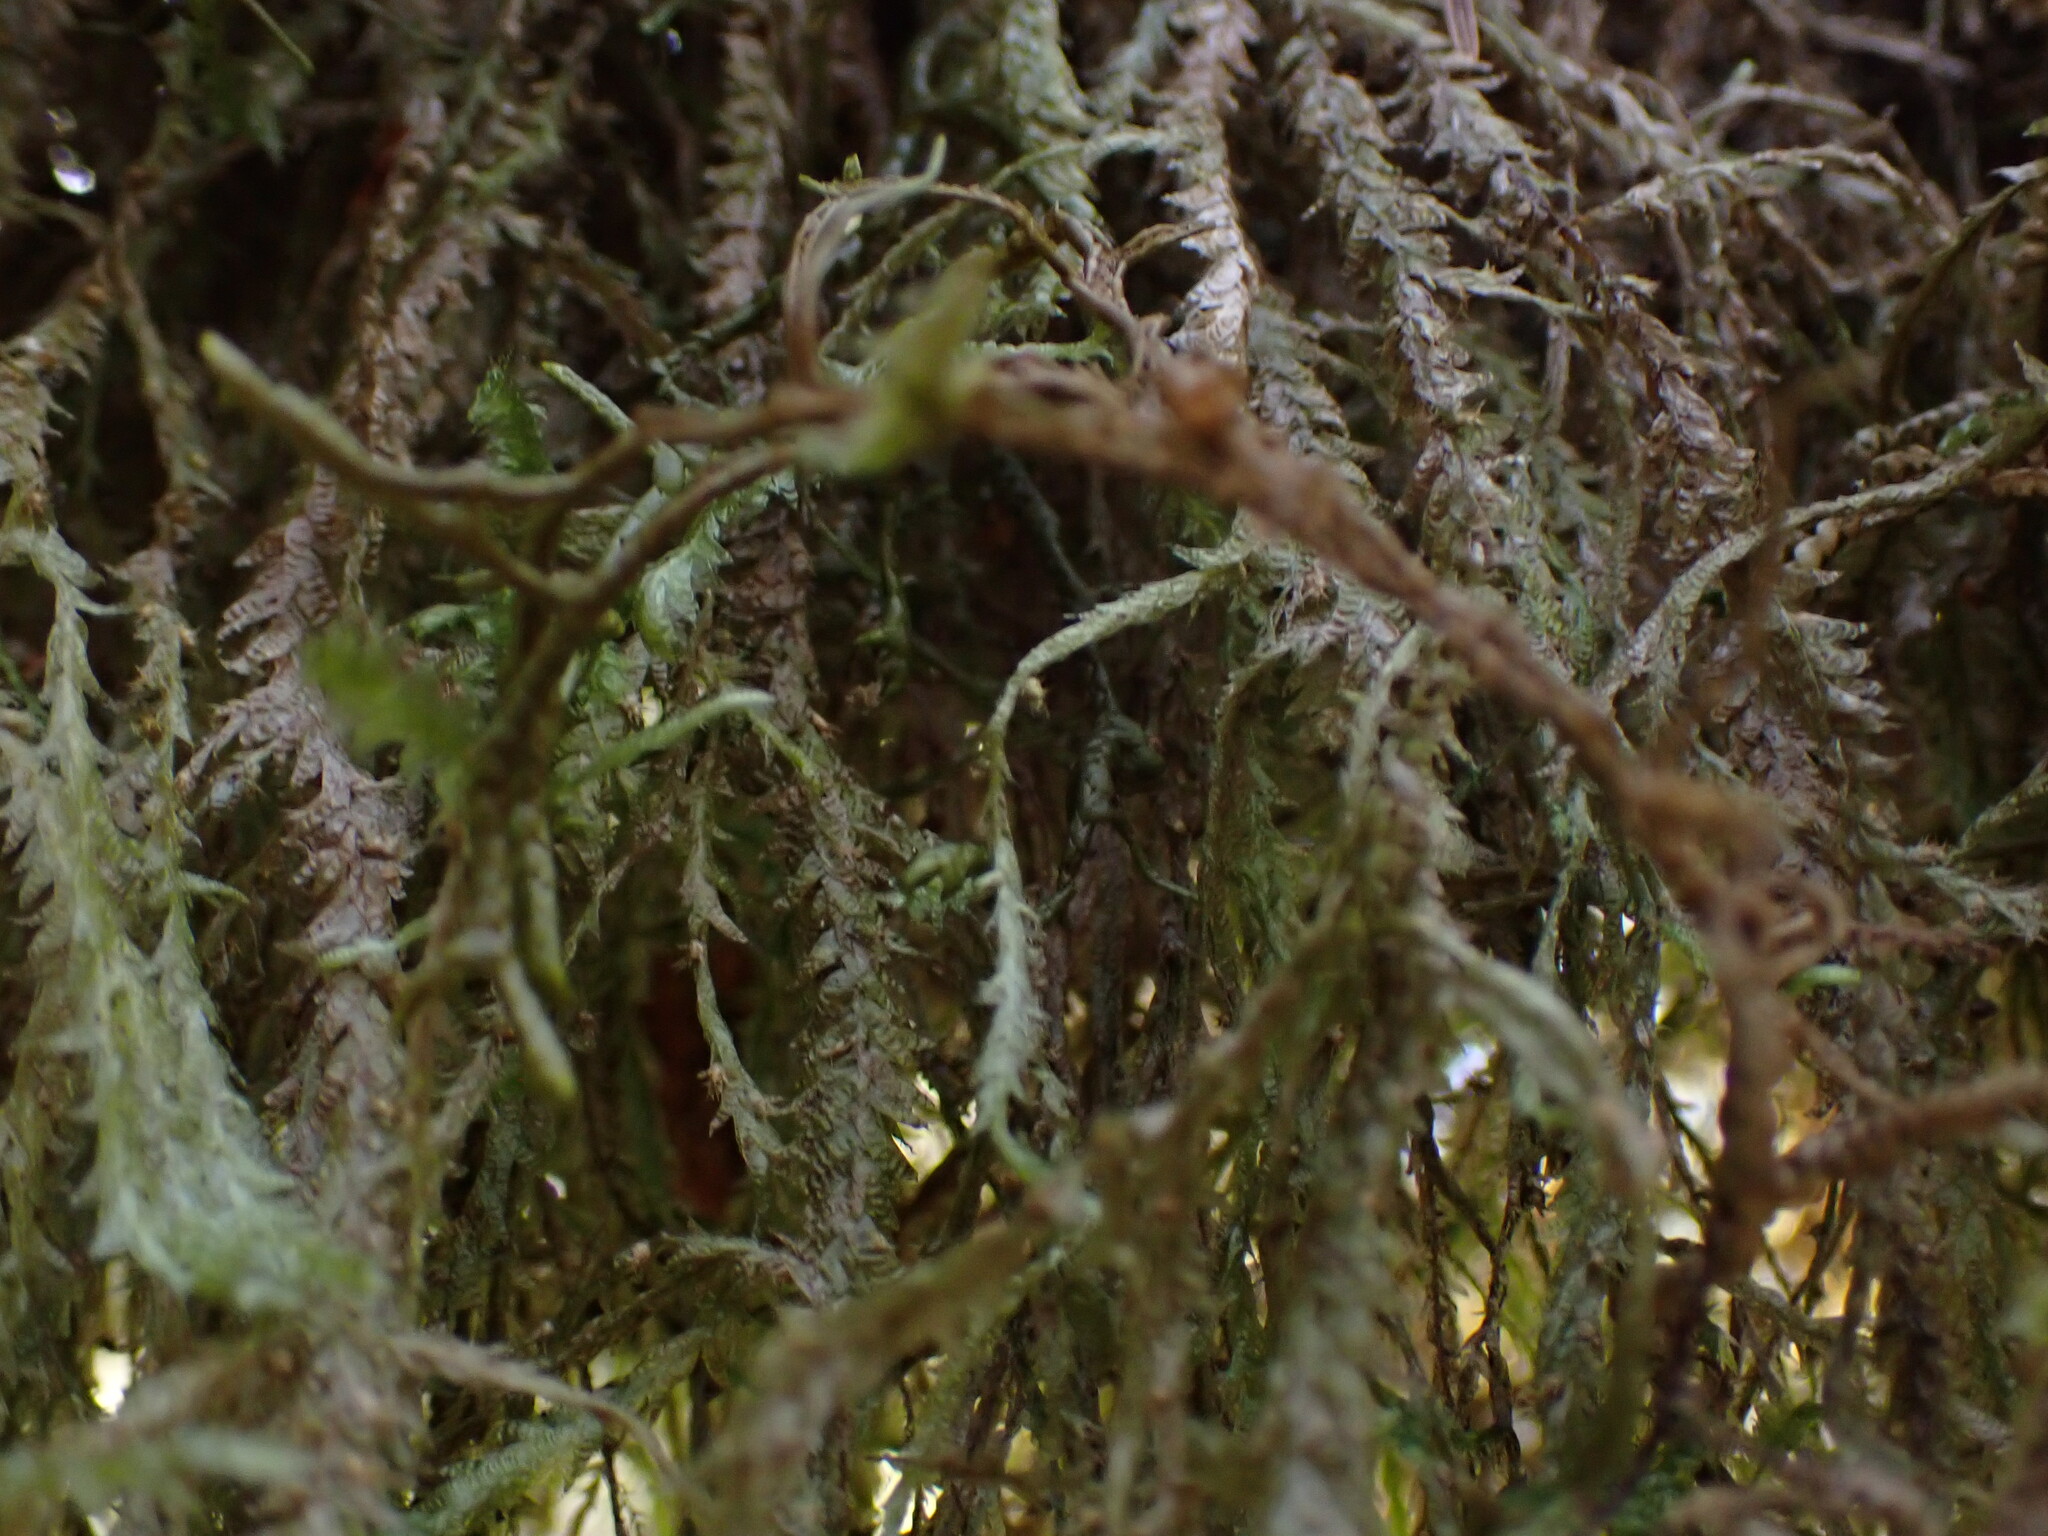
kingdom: Plantae
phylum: Bryophyta
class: Bryopsida
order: Hypnales
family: Neckeraceae
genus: Neckera
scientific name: Neckera douglasii
